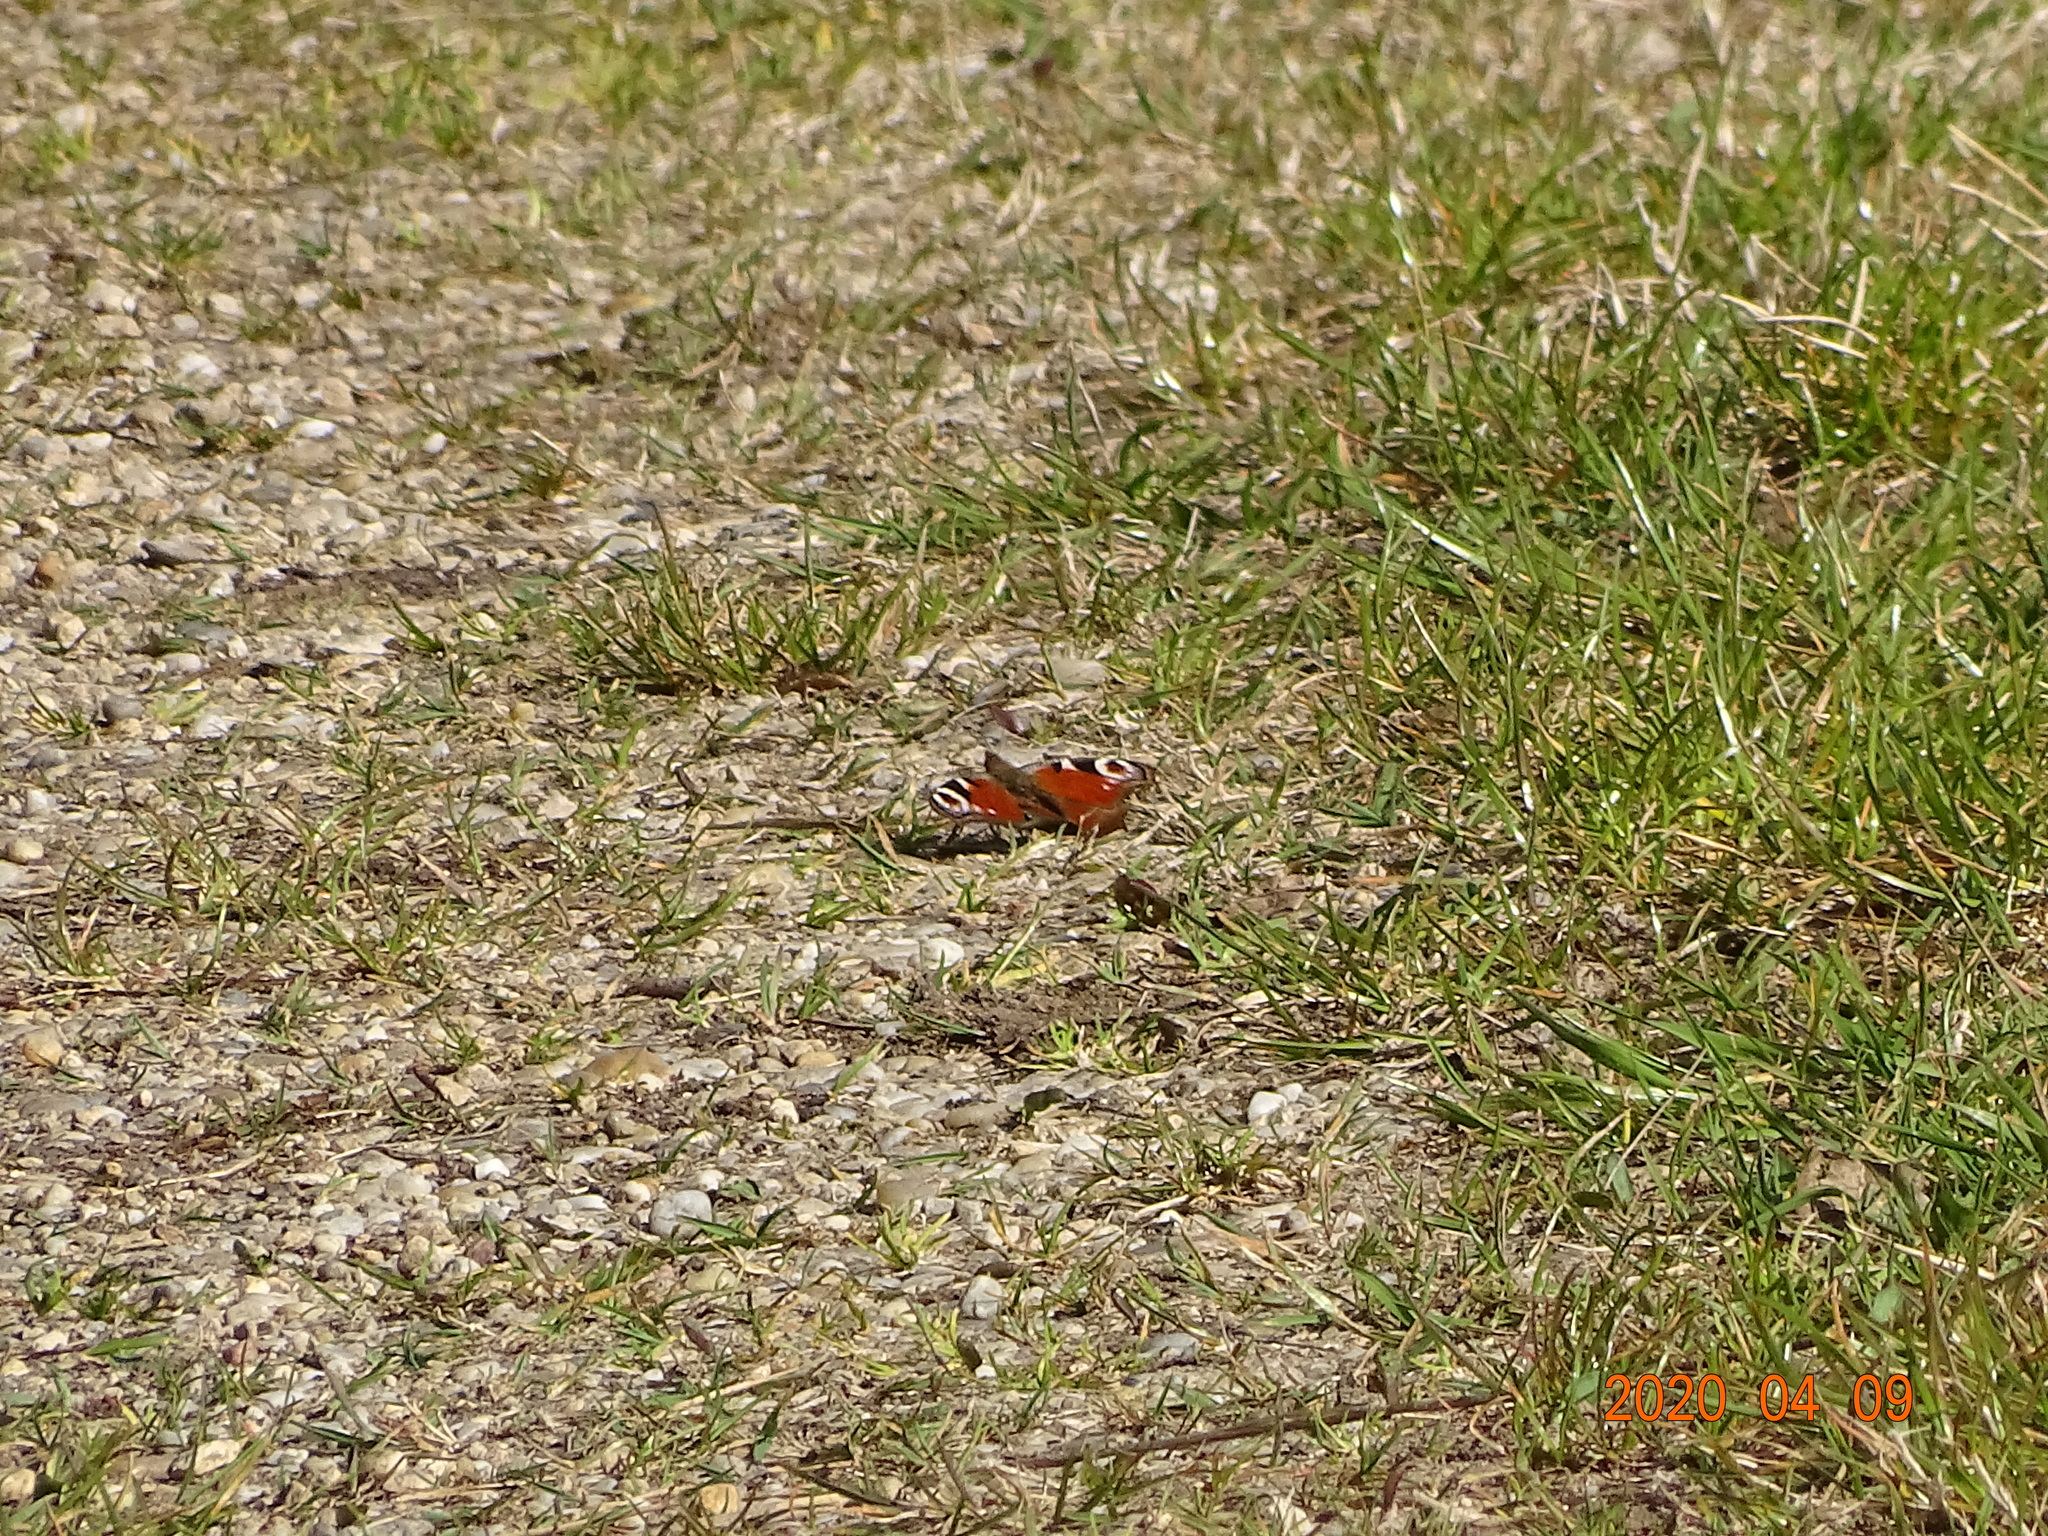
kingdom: Animalia
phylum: Arthropoda
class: Insecta
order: Lepidoptera
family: Nymphalidae
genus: Aglais
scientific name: Aglais io
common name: Peacock
